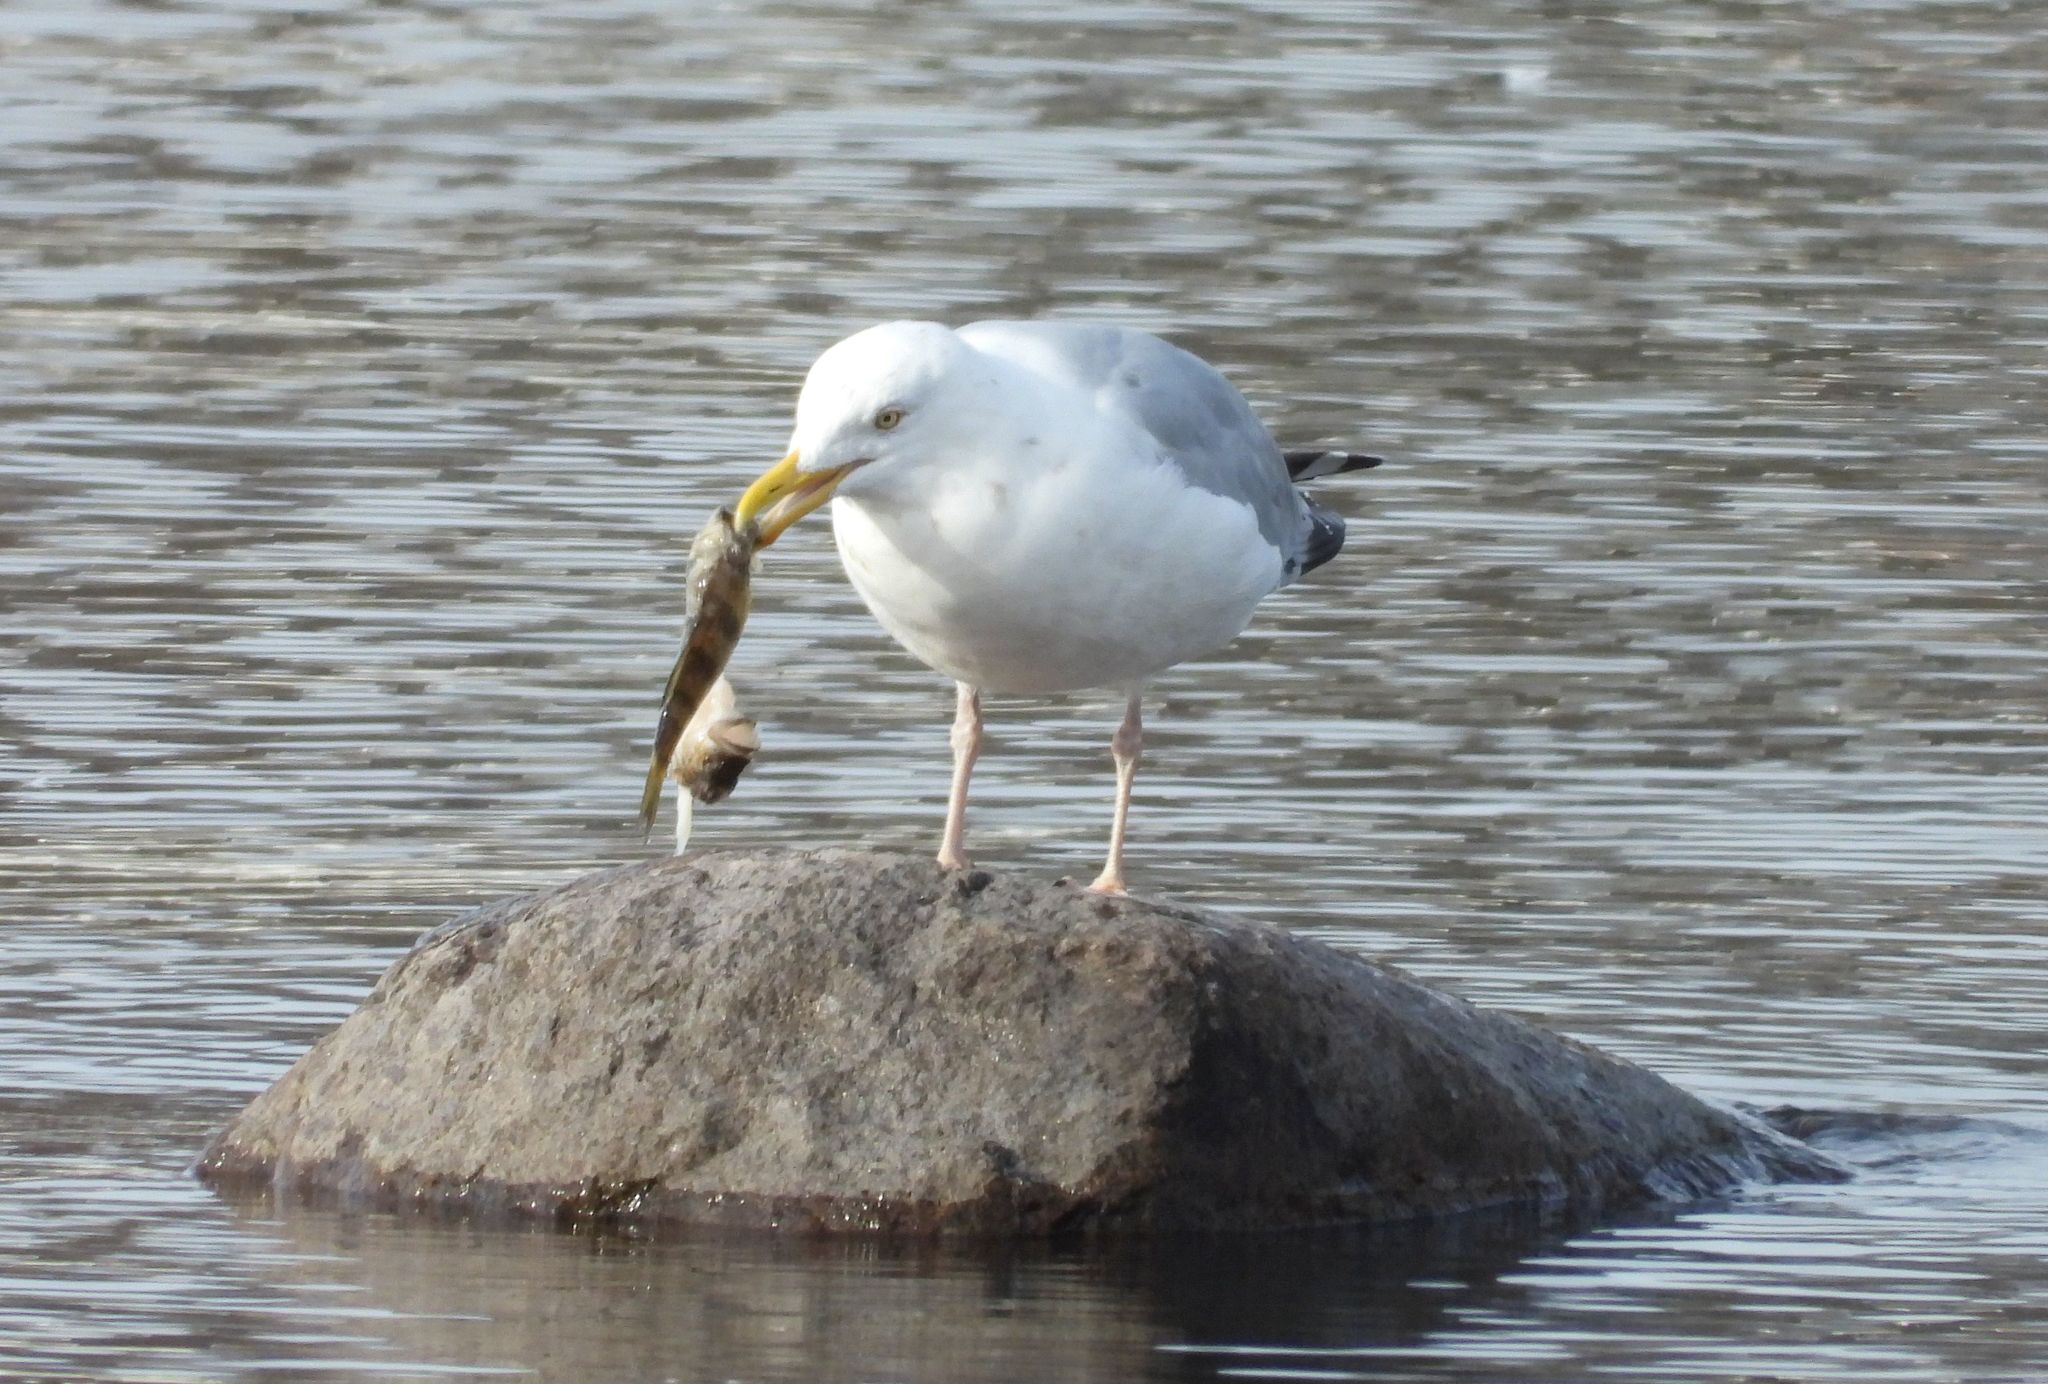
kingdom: Animalia
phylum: Chordata
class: Aves
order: Charadriiformes
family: Laridae
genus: Larus
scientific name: Larus argentatus
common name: Herring gull
